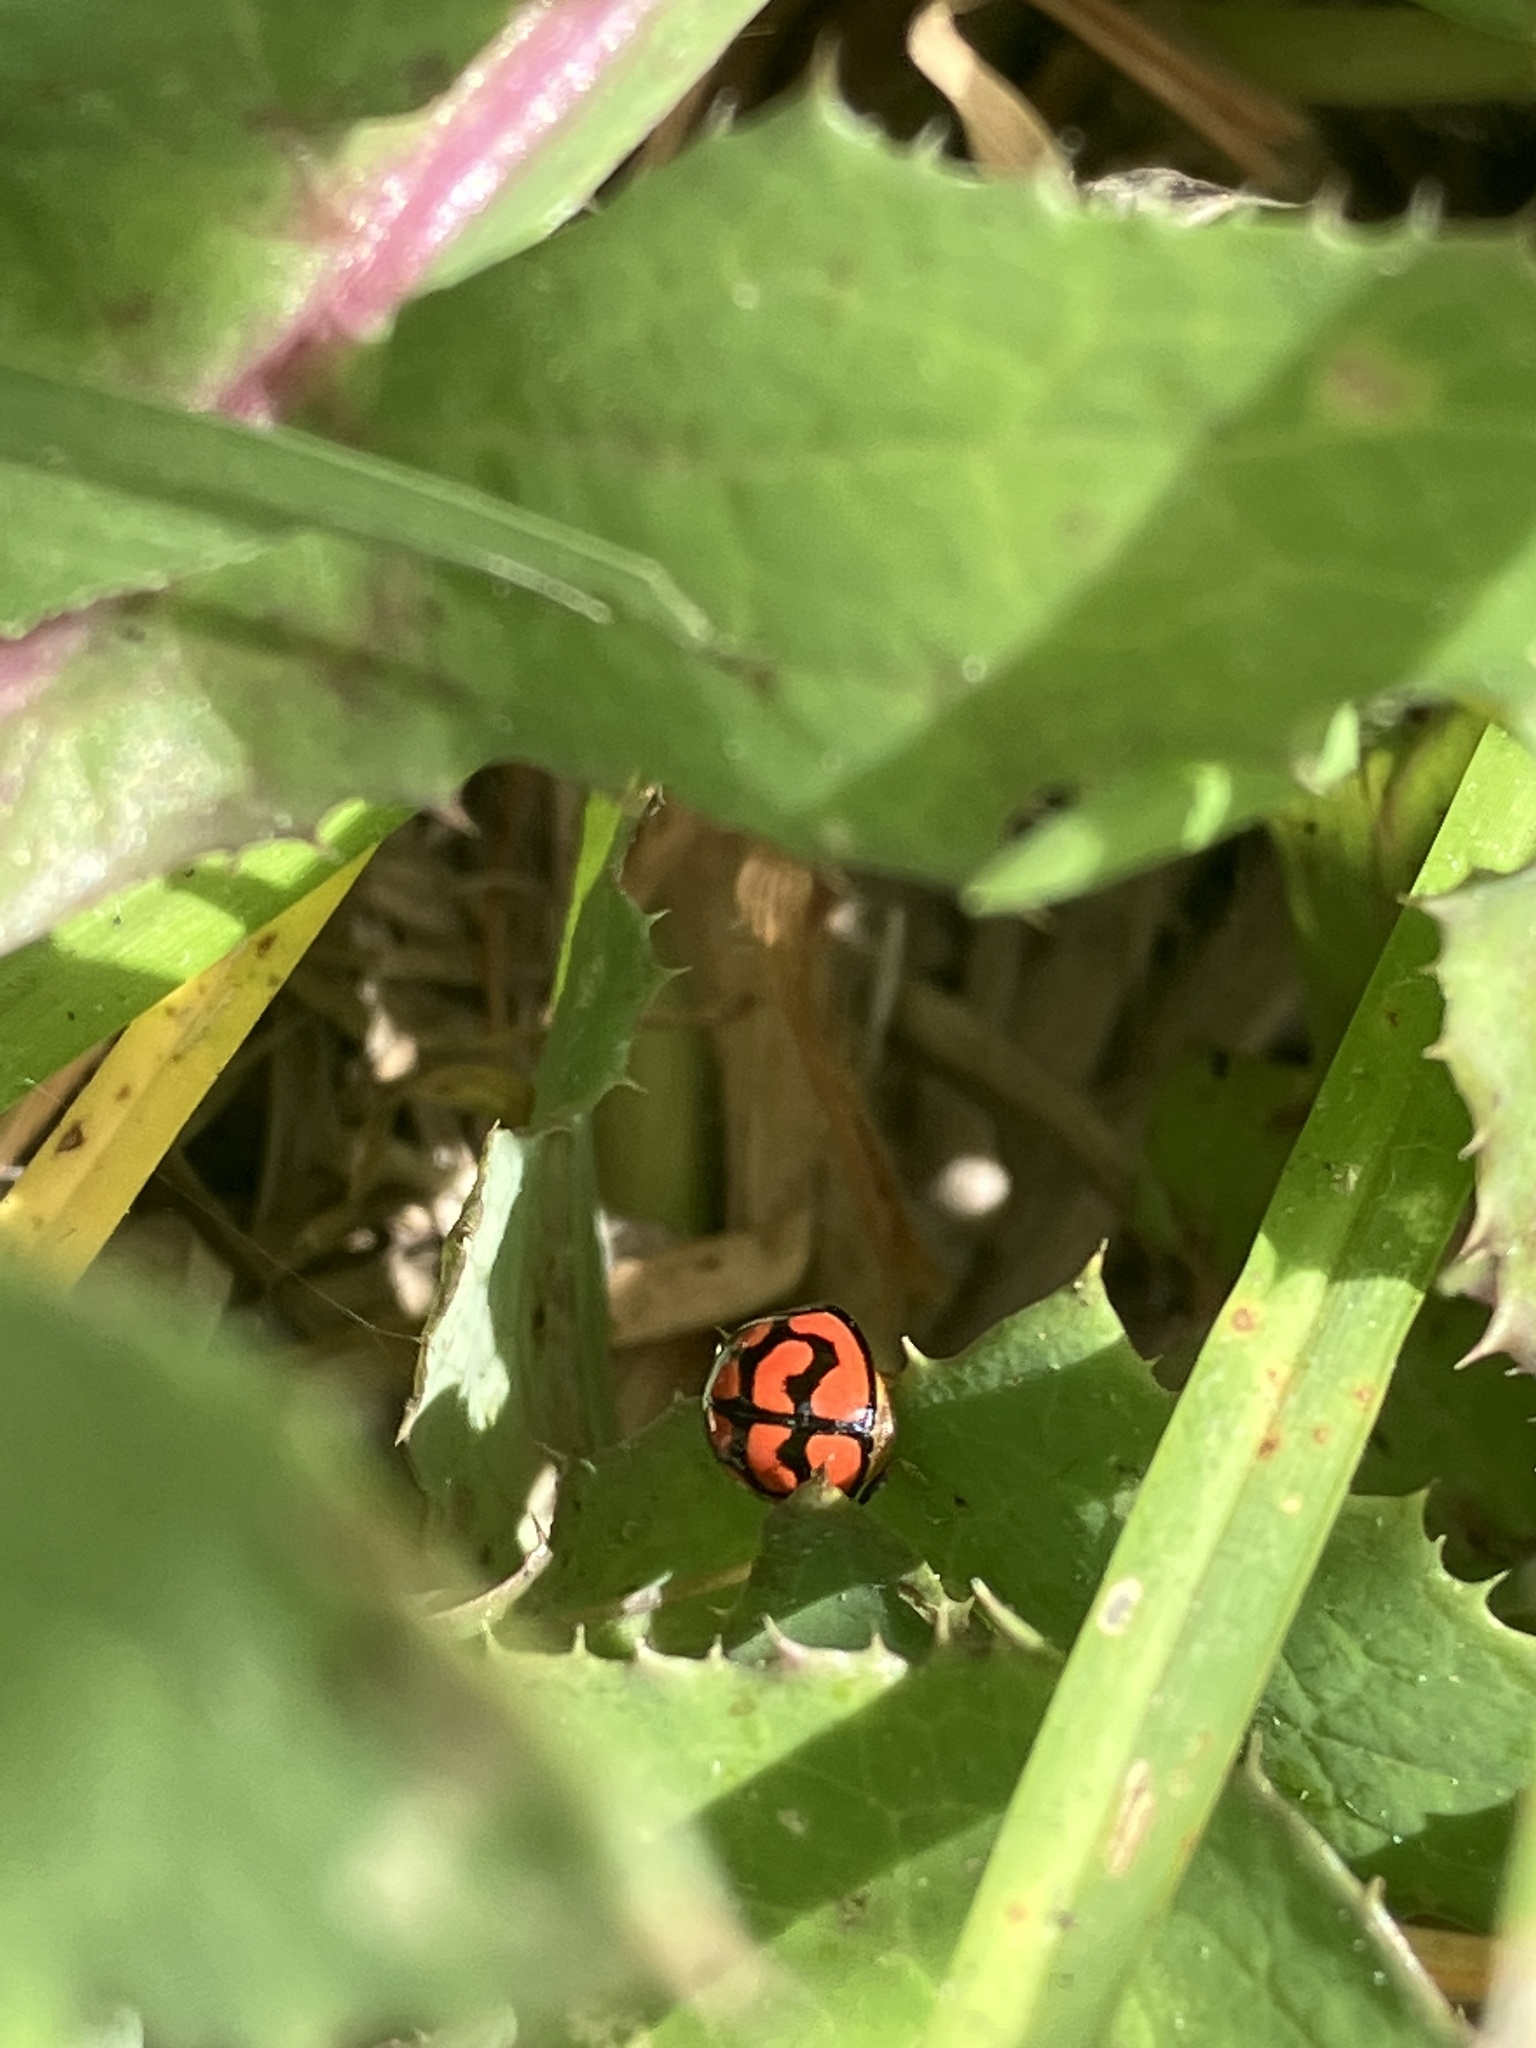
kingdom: Animalia
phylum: Arthropoda
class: Insecta
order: Coleoptera
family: Coccinellidae
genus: Cheilomenes
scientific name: Cheilomenes lunata
